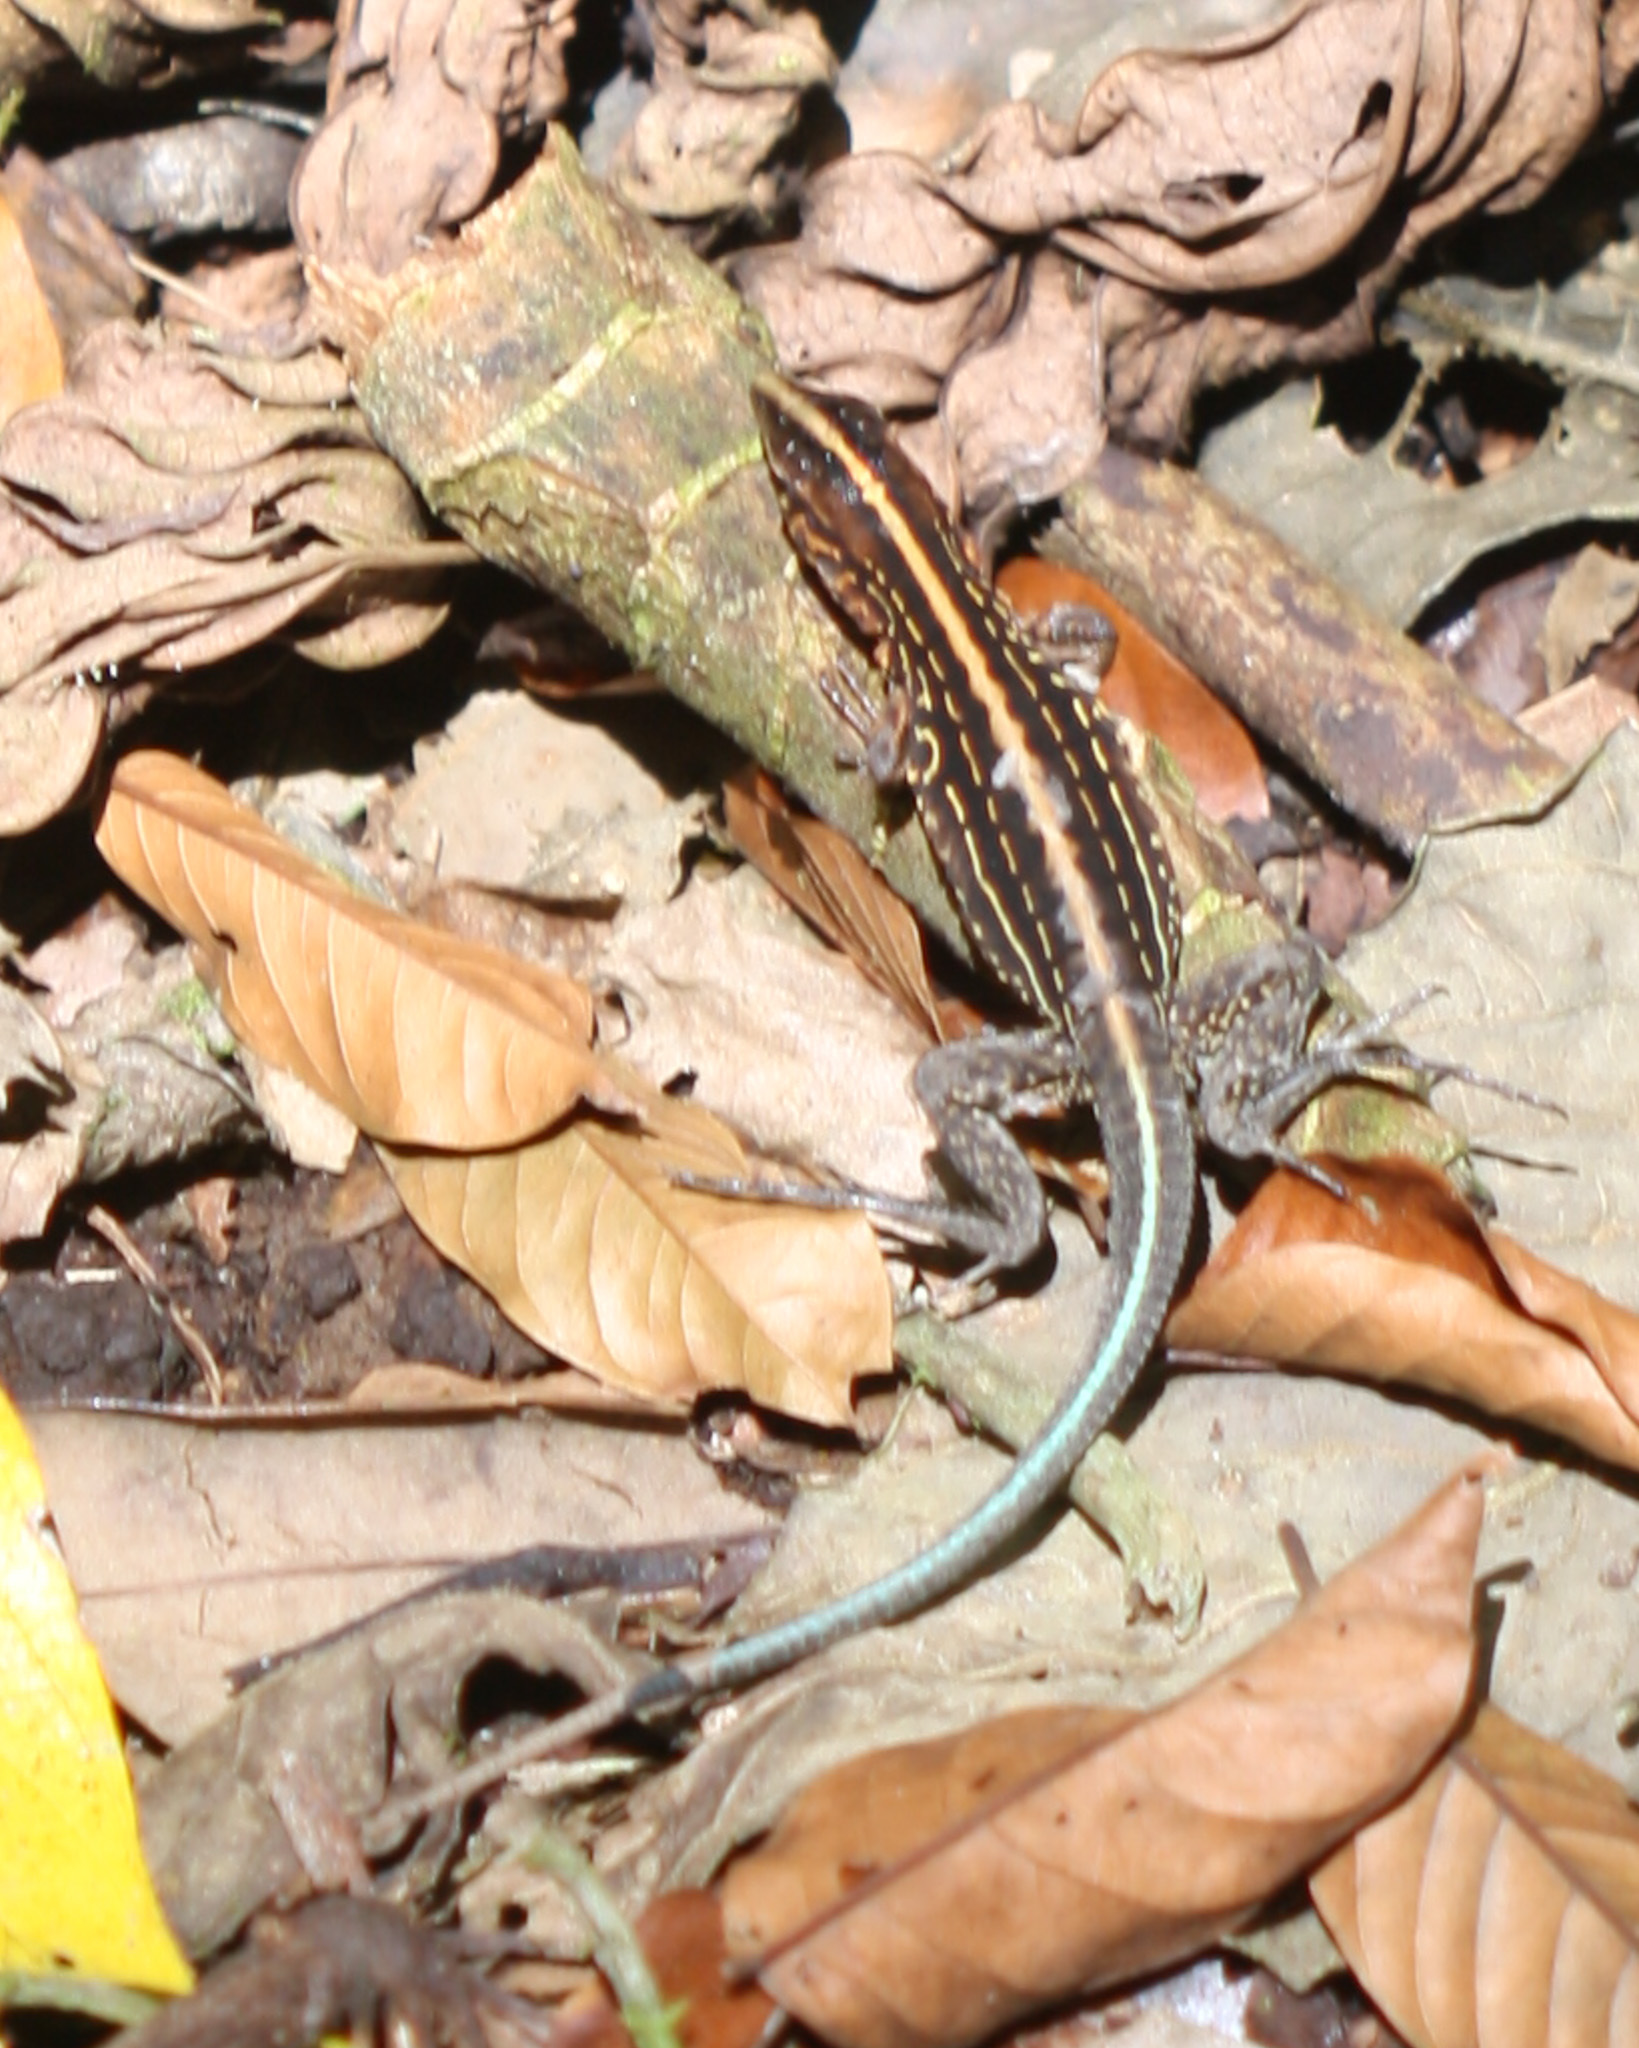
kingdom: Animalia
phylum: Chordata
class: Squamata
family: Teiidae
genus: Holcosus
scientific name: Holcosus festivus
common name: Middle american ameiva
